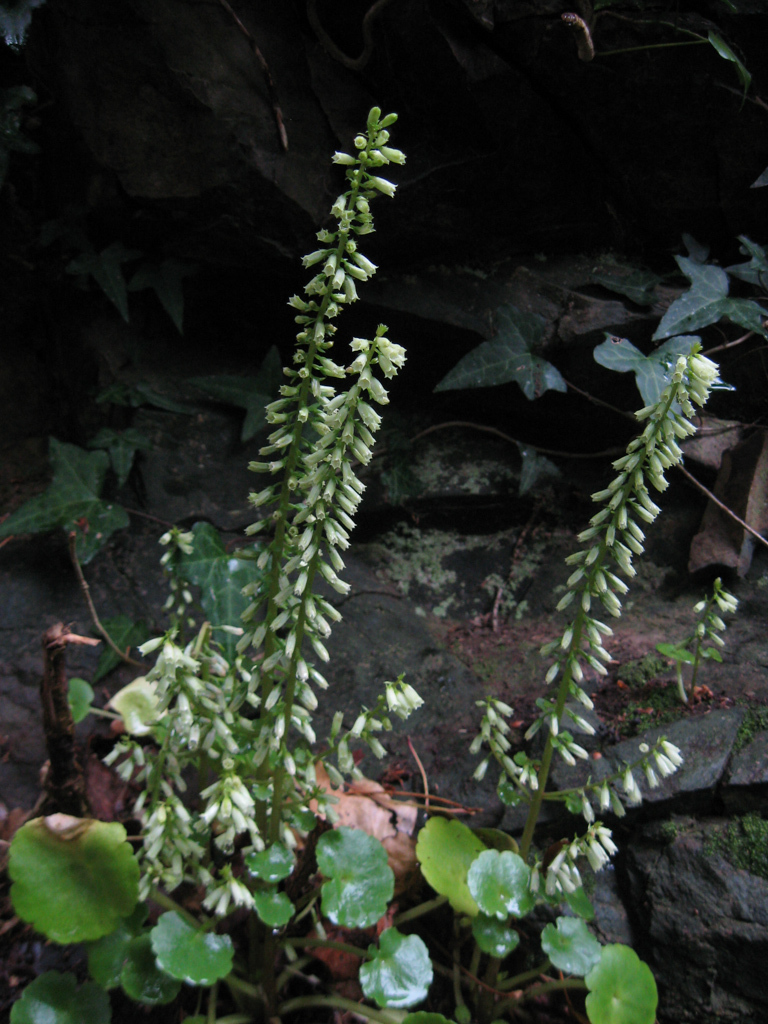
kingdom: Plantae
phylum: Tracheophyta
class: Magnoliopsida
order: Saxifragales
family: Crassulaceae
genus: Umbilicus
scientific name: Umbilicus rupestris
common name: Navelwort
